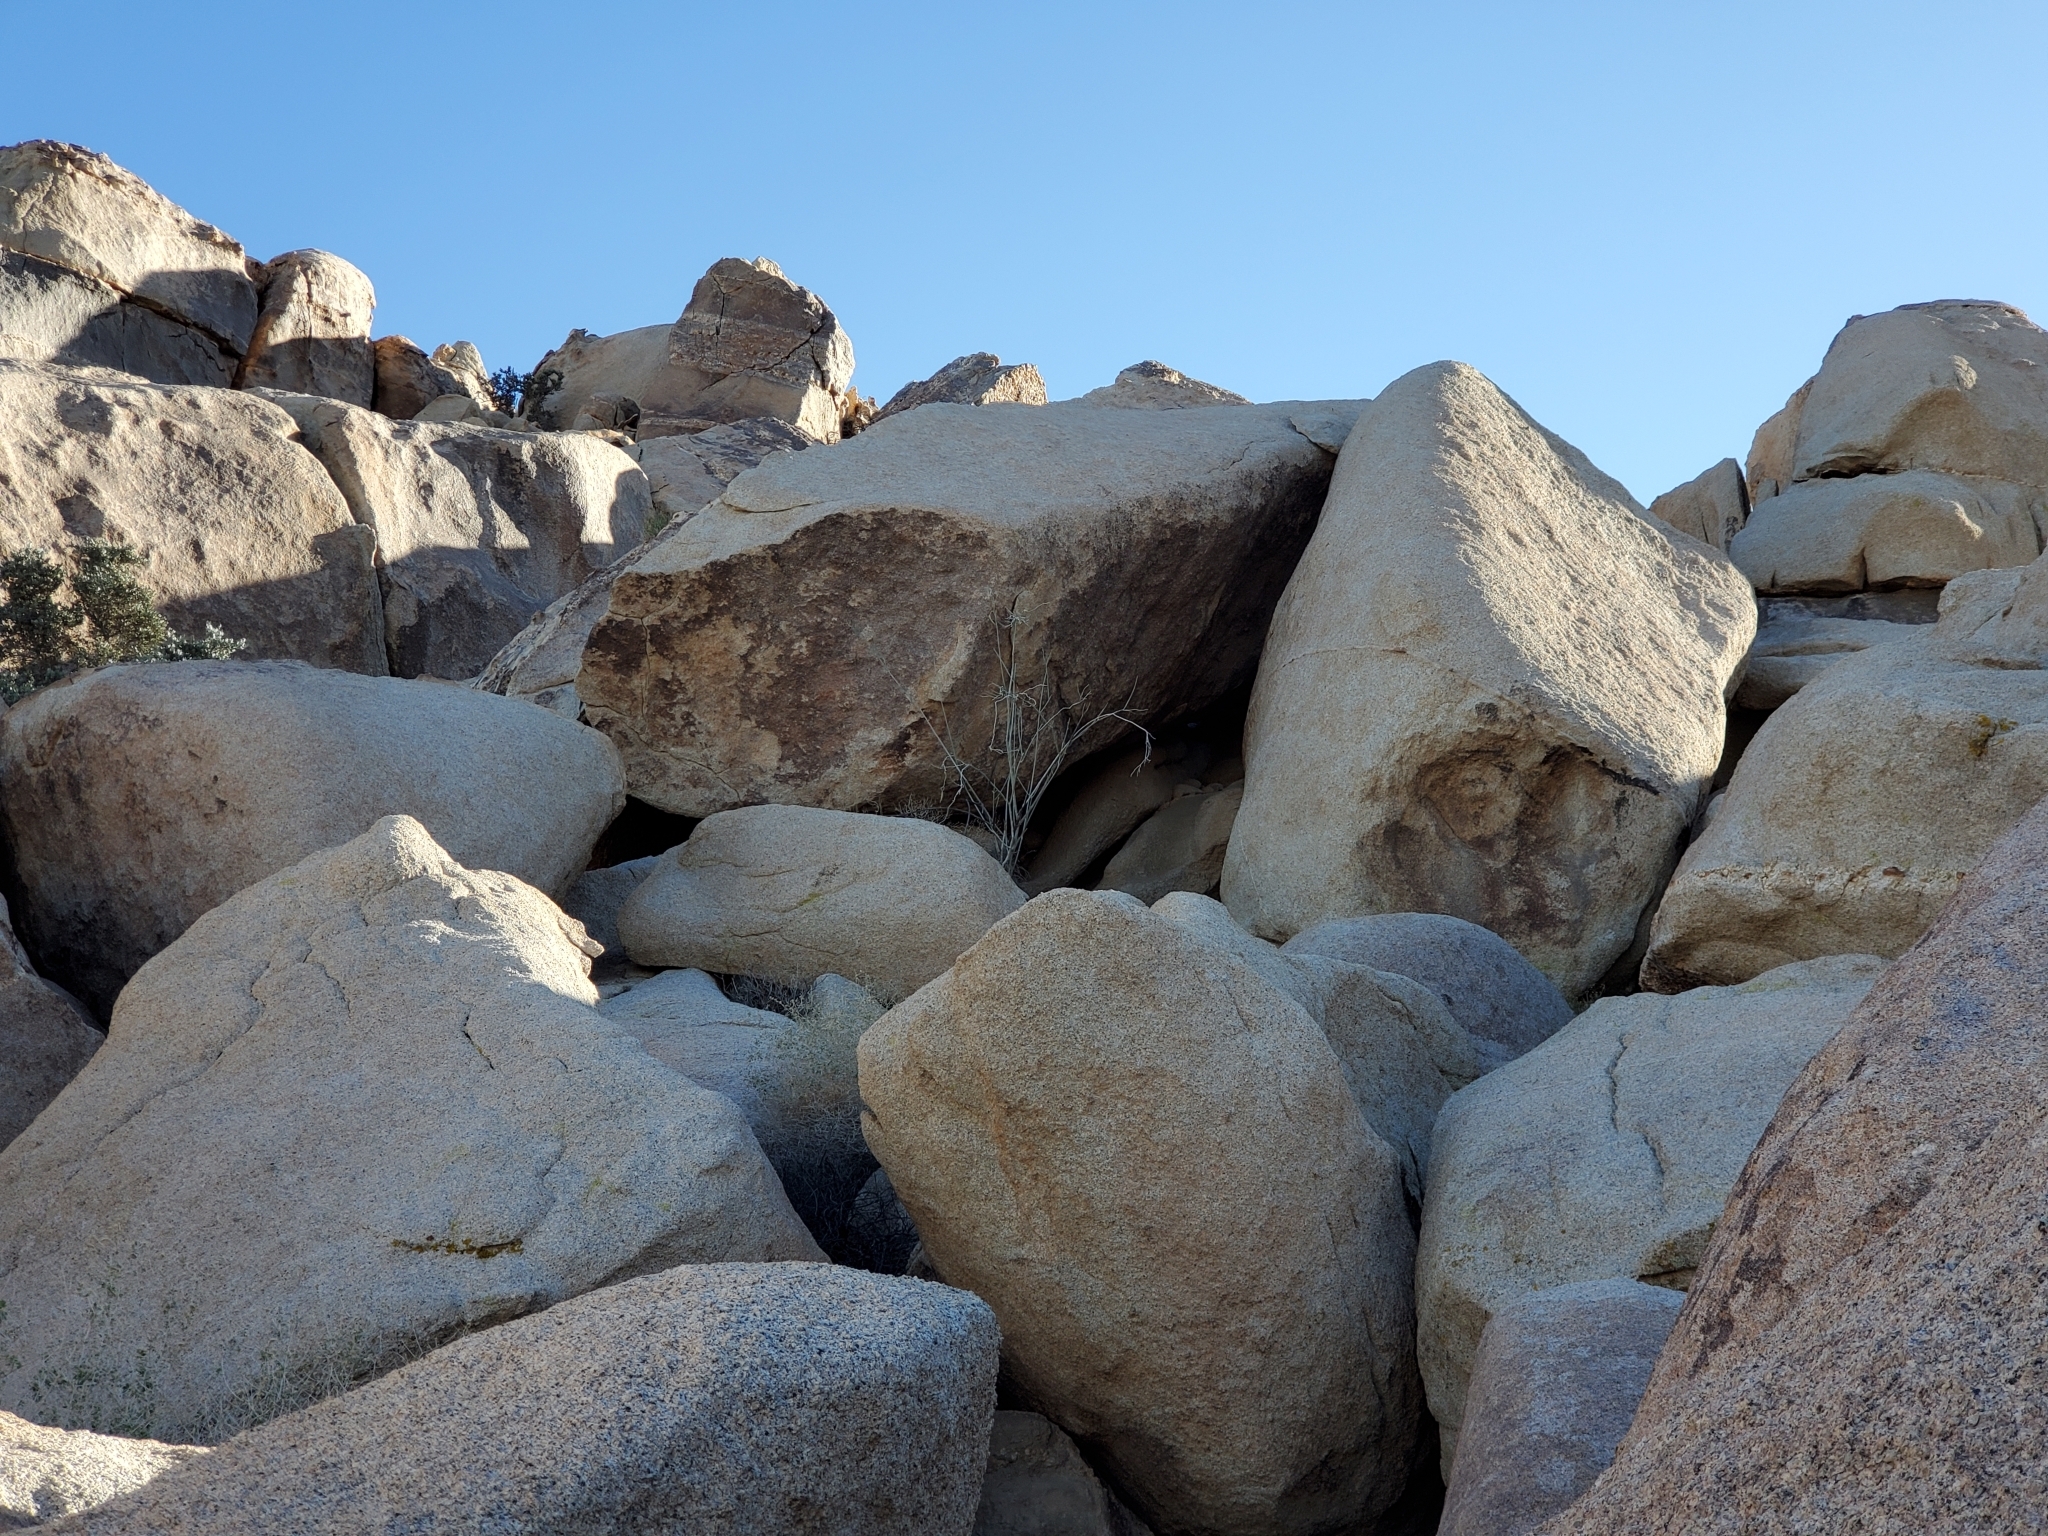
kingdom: Plantae
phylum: Tracheophyta
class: Magnoliopsida
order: Gentianales
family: Apocynaceae
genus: Asclepias
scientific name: Asclepias albicans
